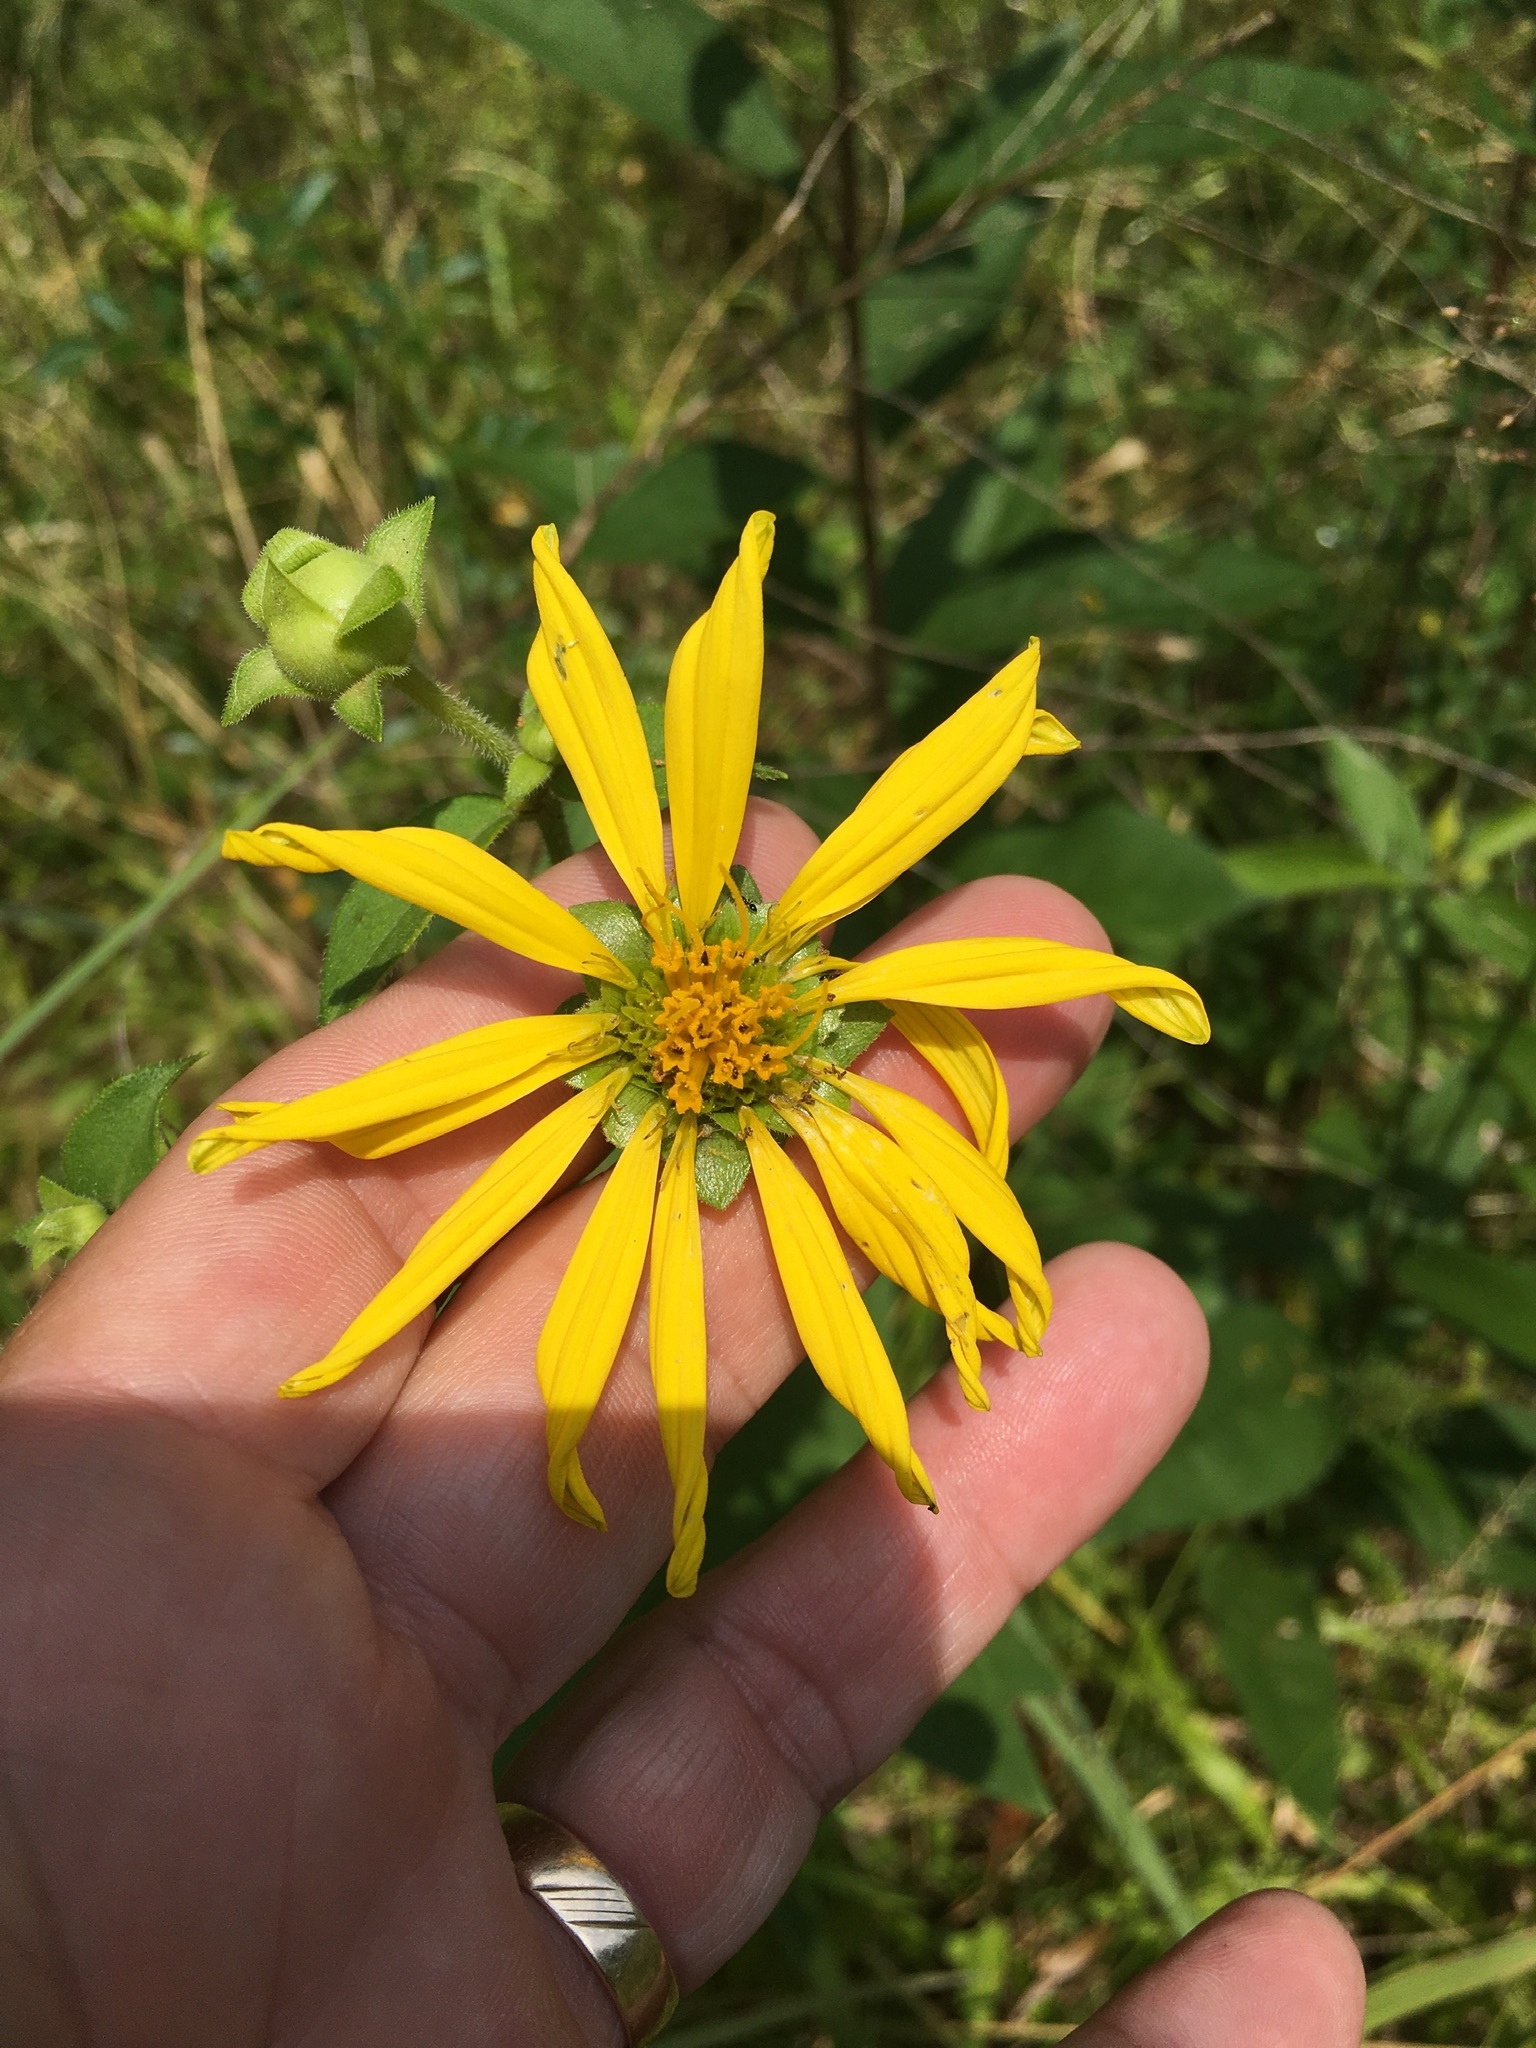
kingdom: Plantae
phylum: Tracheophyta
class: Magnoliopsida
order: Asterales
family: Asteraceae
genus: Silphium
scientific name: Silphium asteriscus
